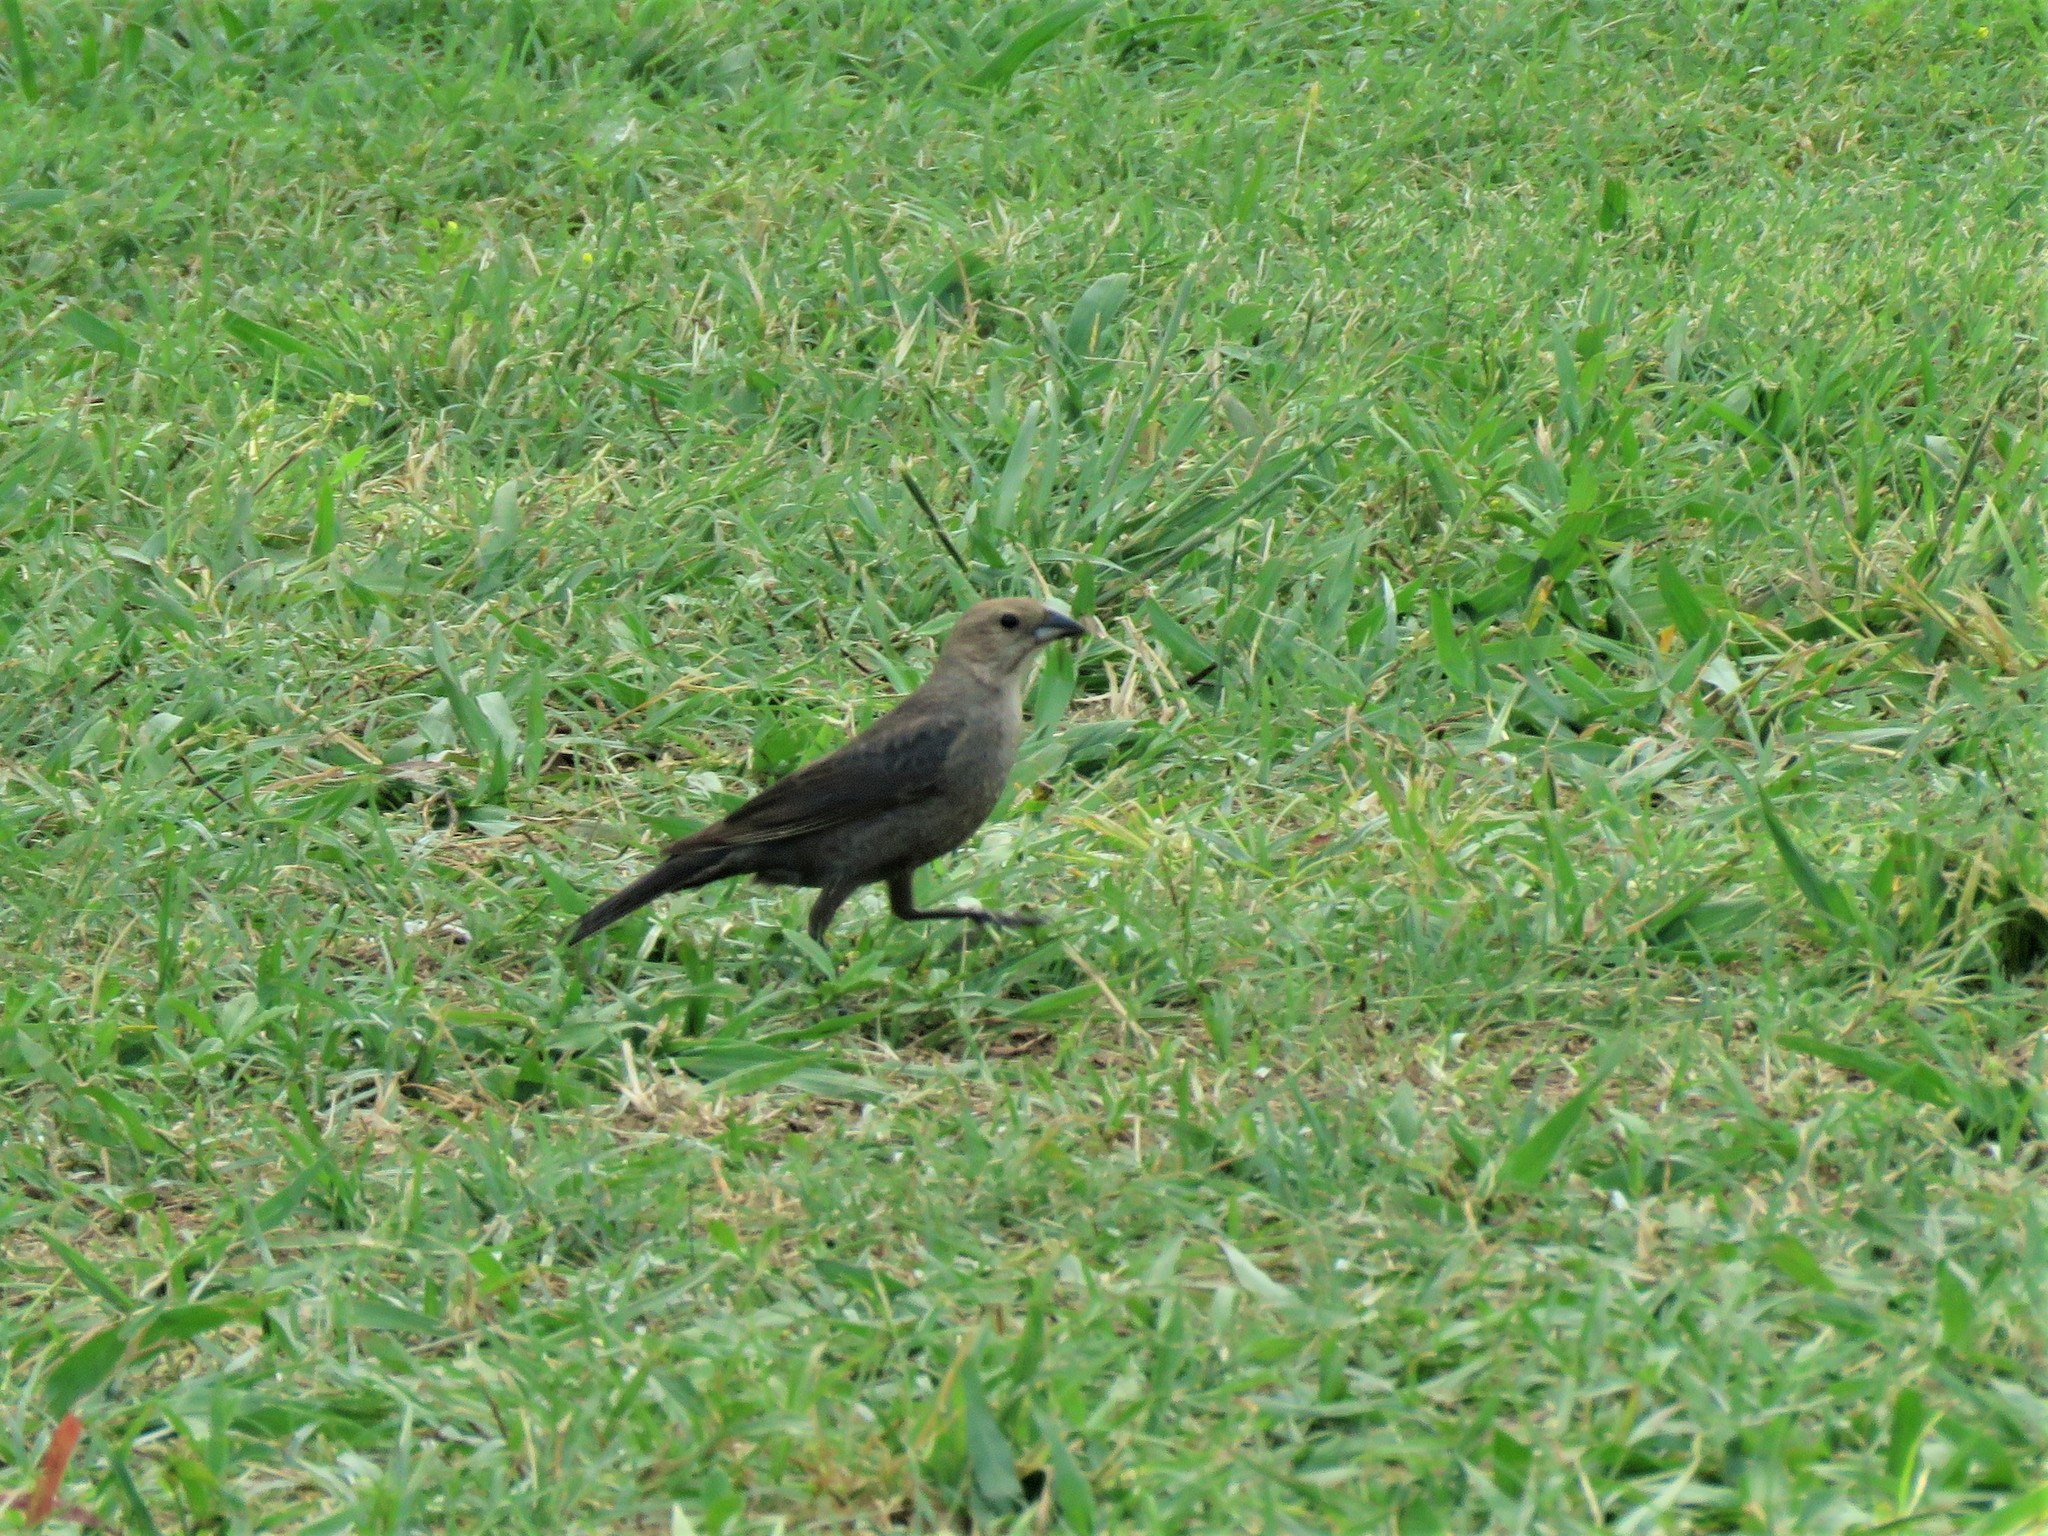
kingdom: Animalia
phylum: Chordata
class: Aves
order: Passeriformes
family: Icteridae
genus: Molothrus
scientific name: Molothrus ater
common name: Brown-headed cowbird
